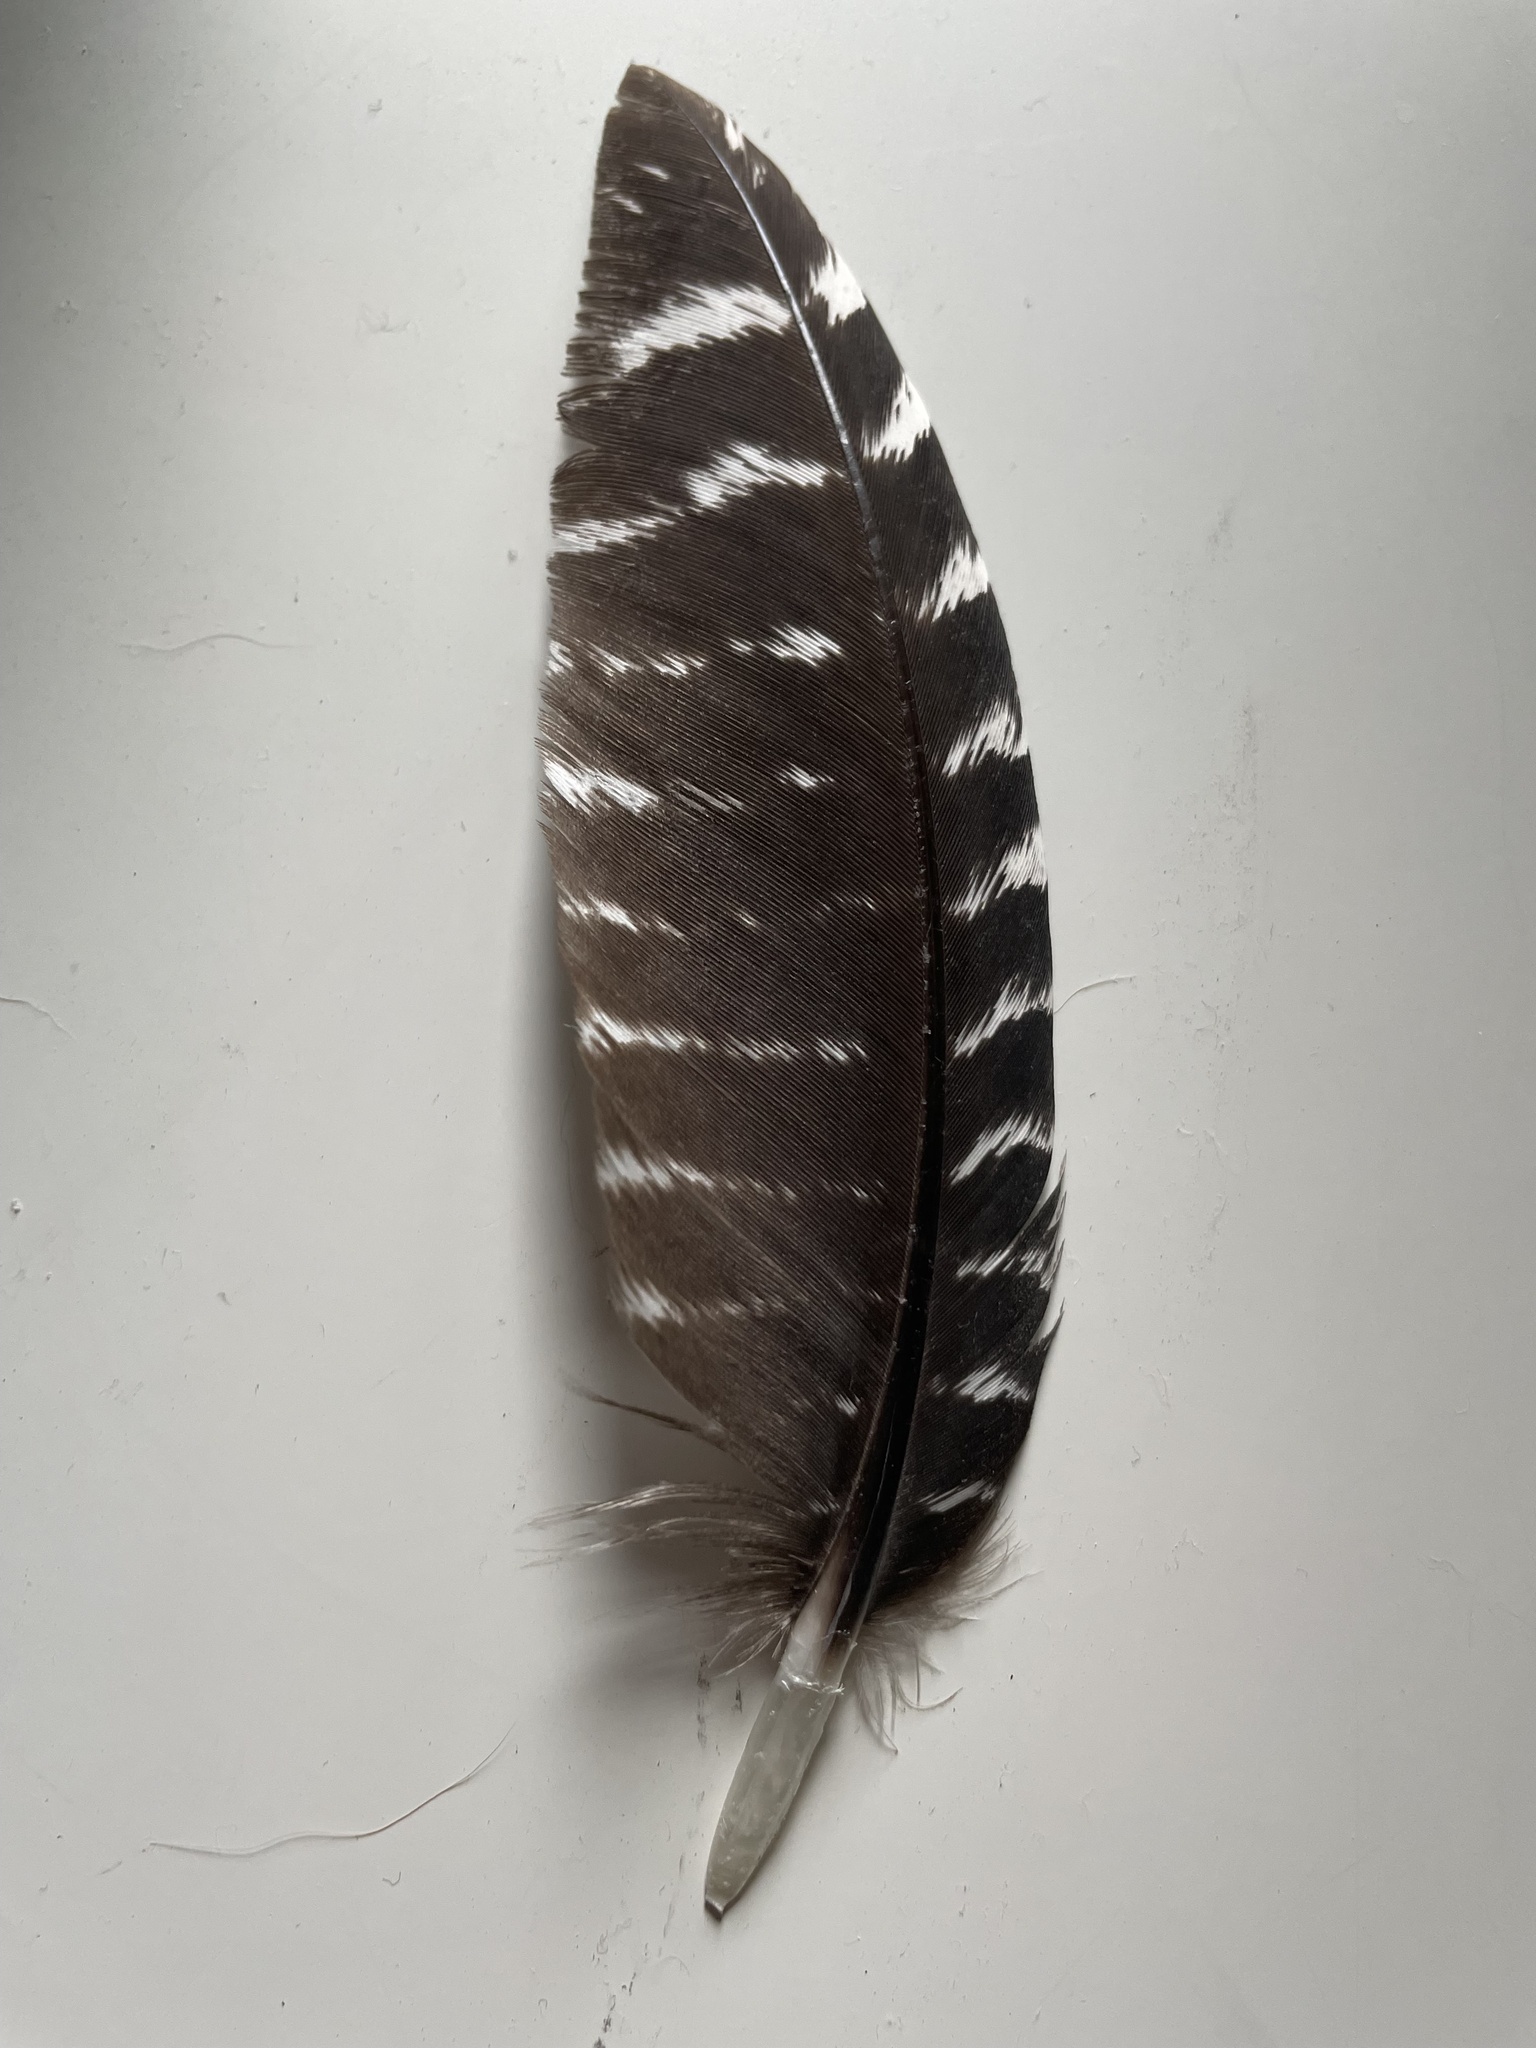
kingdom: Animalia
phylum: Chordata
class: Aves
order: Galliformes
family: Phasianidae
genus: Meleagris
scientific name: Meleagris gallopavo
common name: Wild turkey
